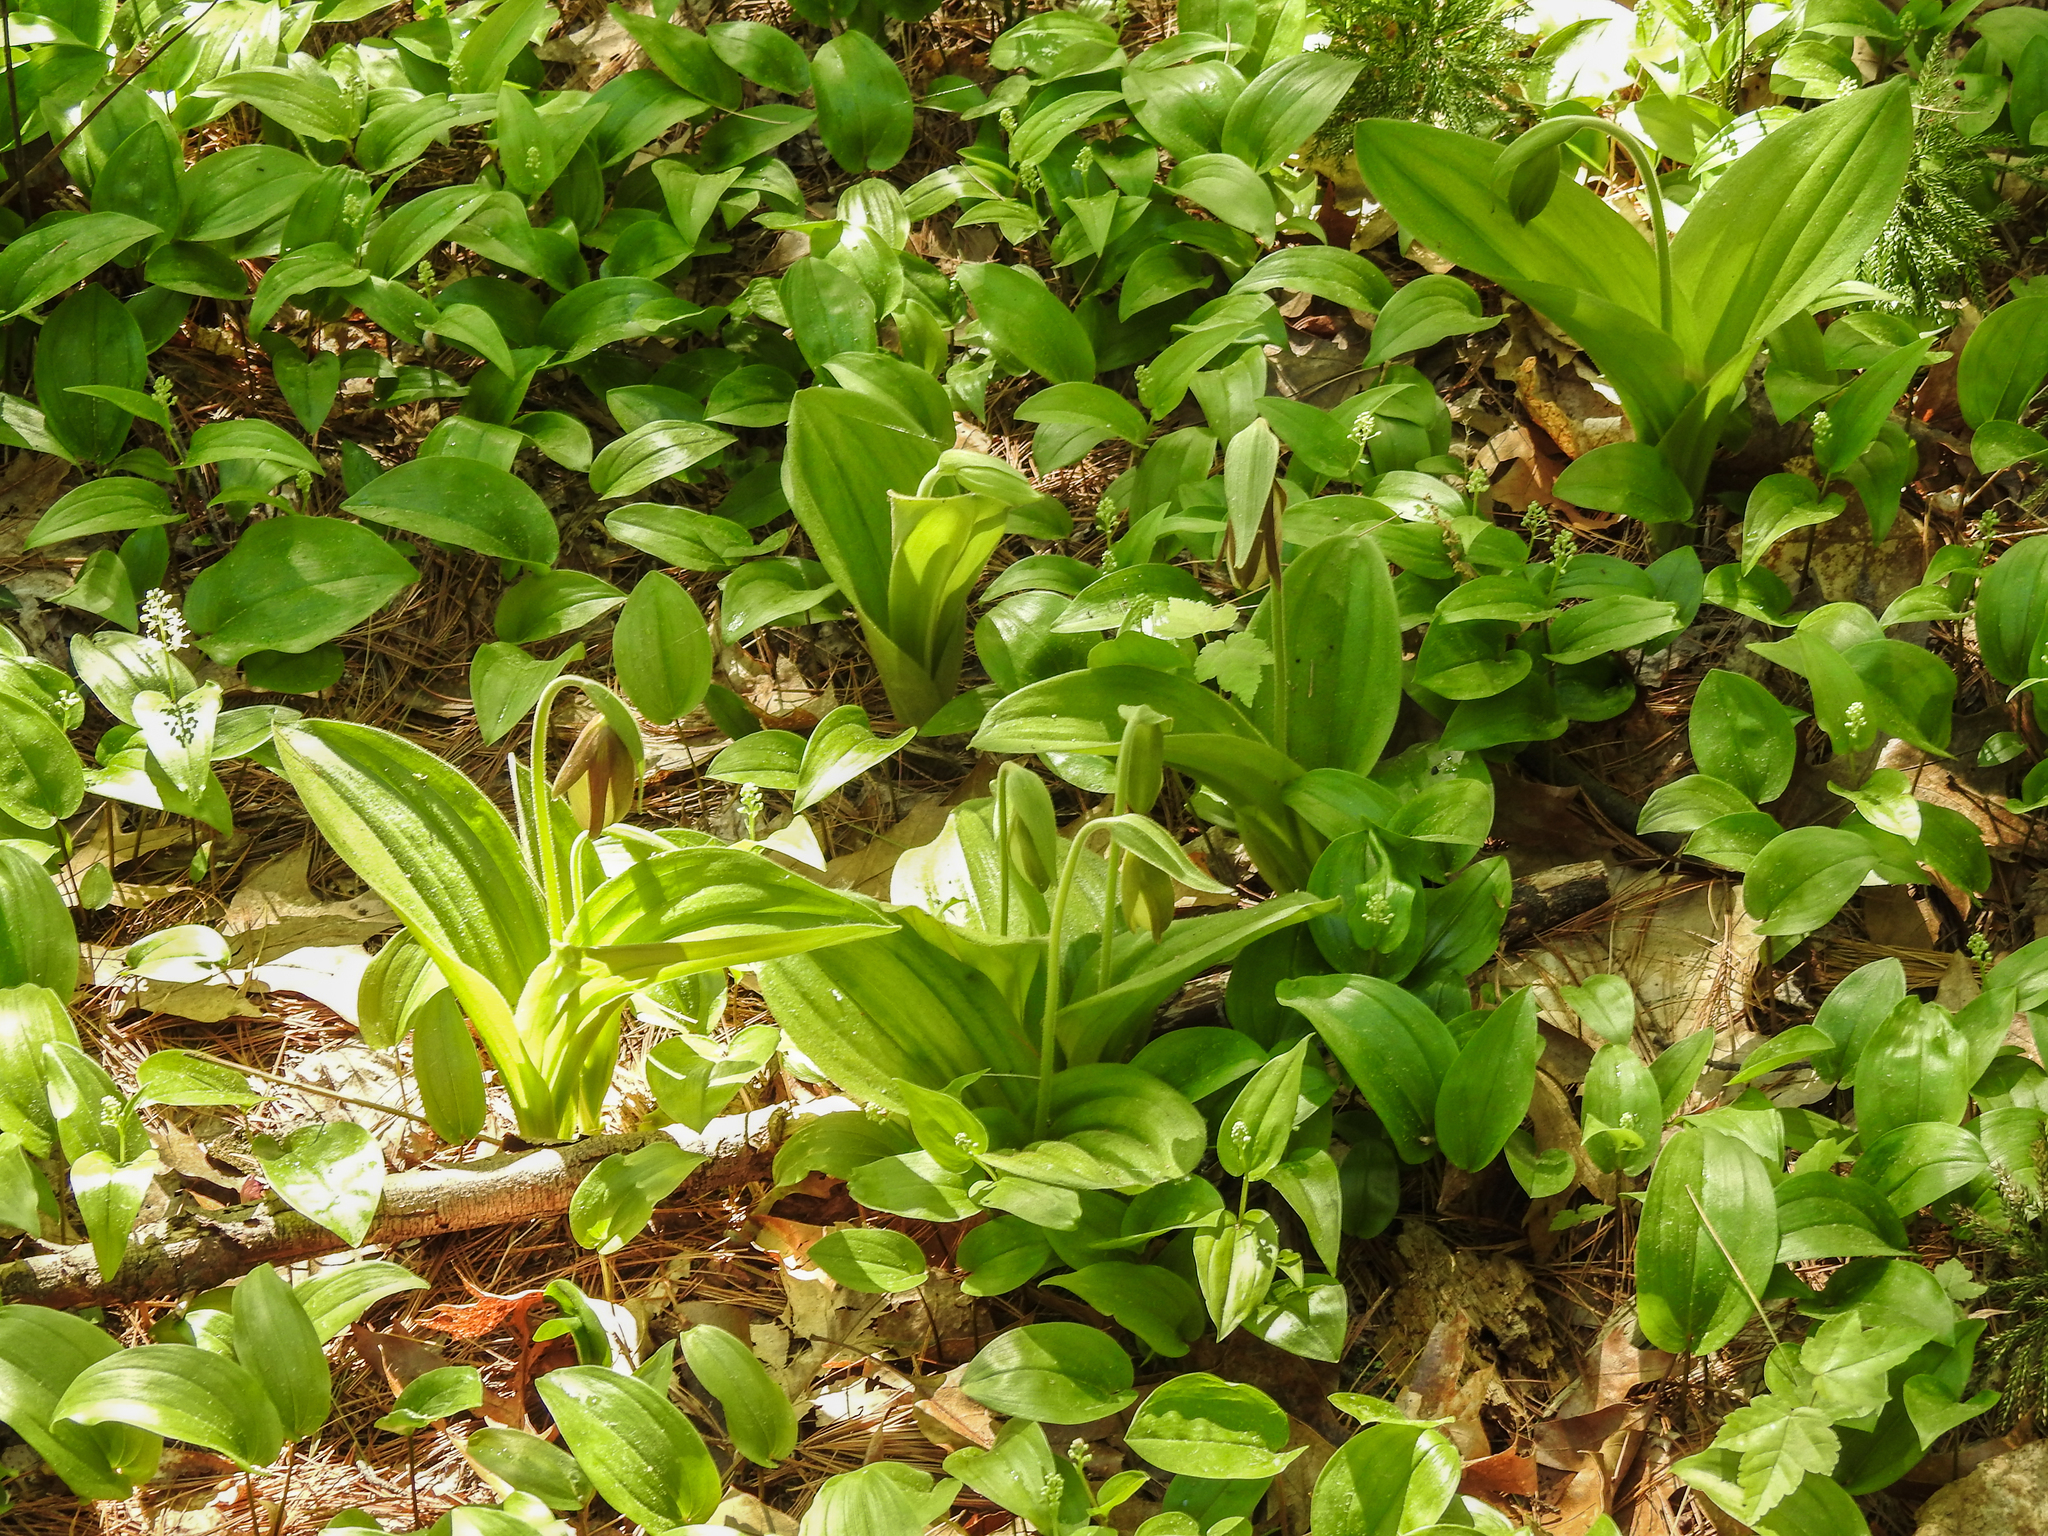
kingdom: Plantae
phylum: Tracheophyta
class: Liliopsida
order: Asparagales
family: Orchidaceae
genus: Cypripedium
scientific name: Cypripedium acaule
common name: Pink lady's-slipper
